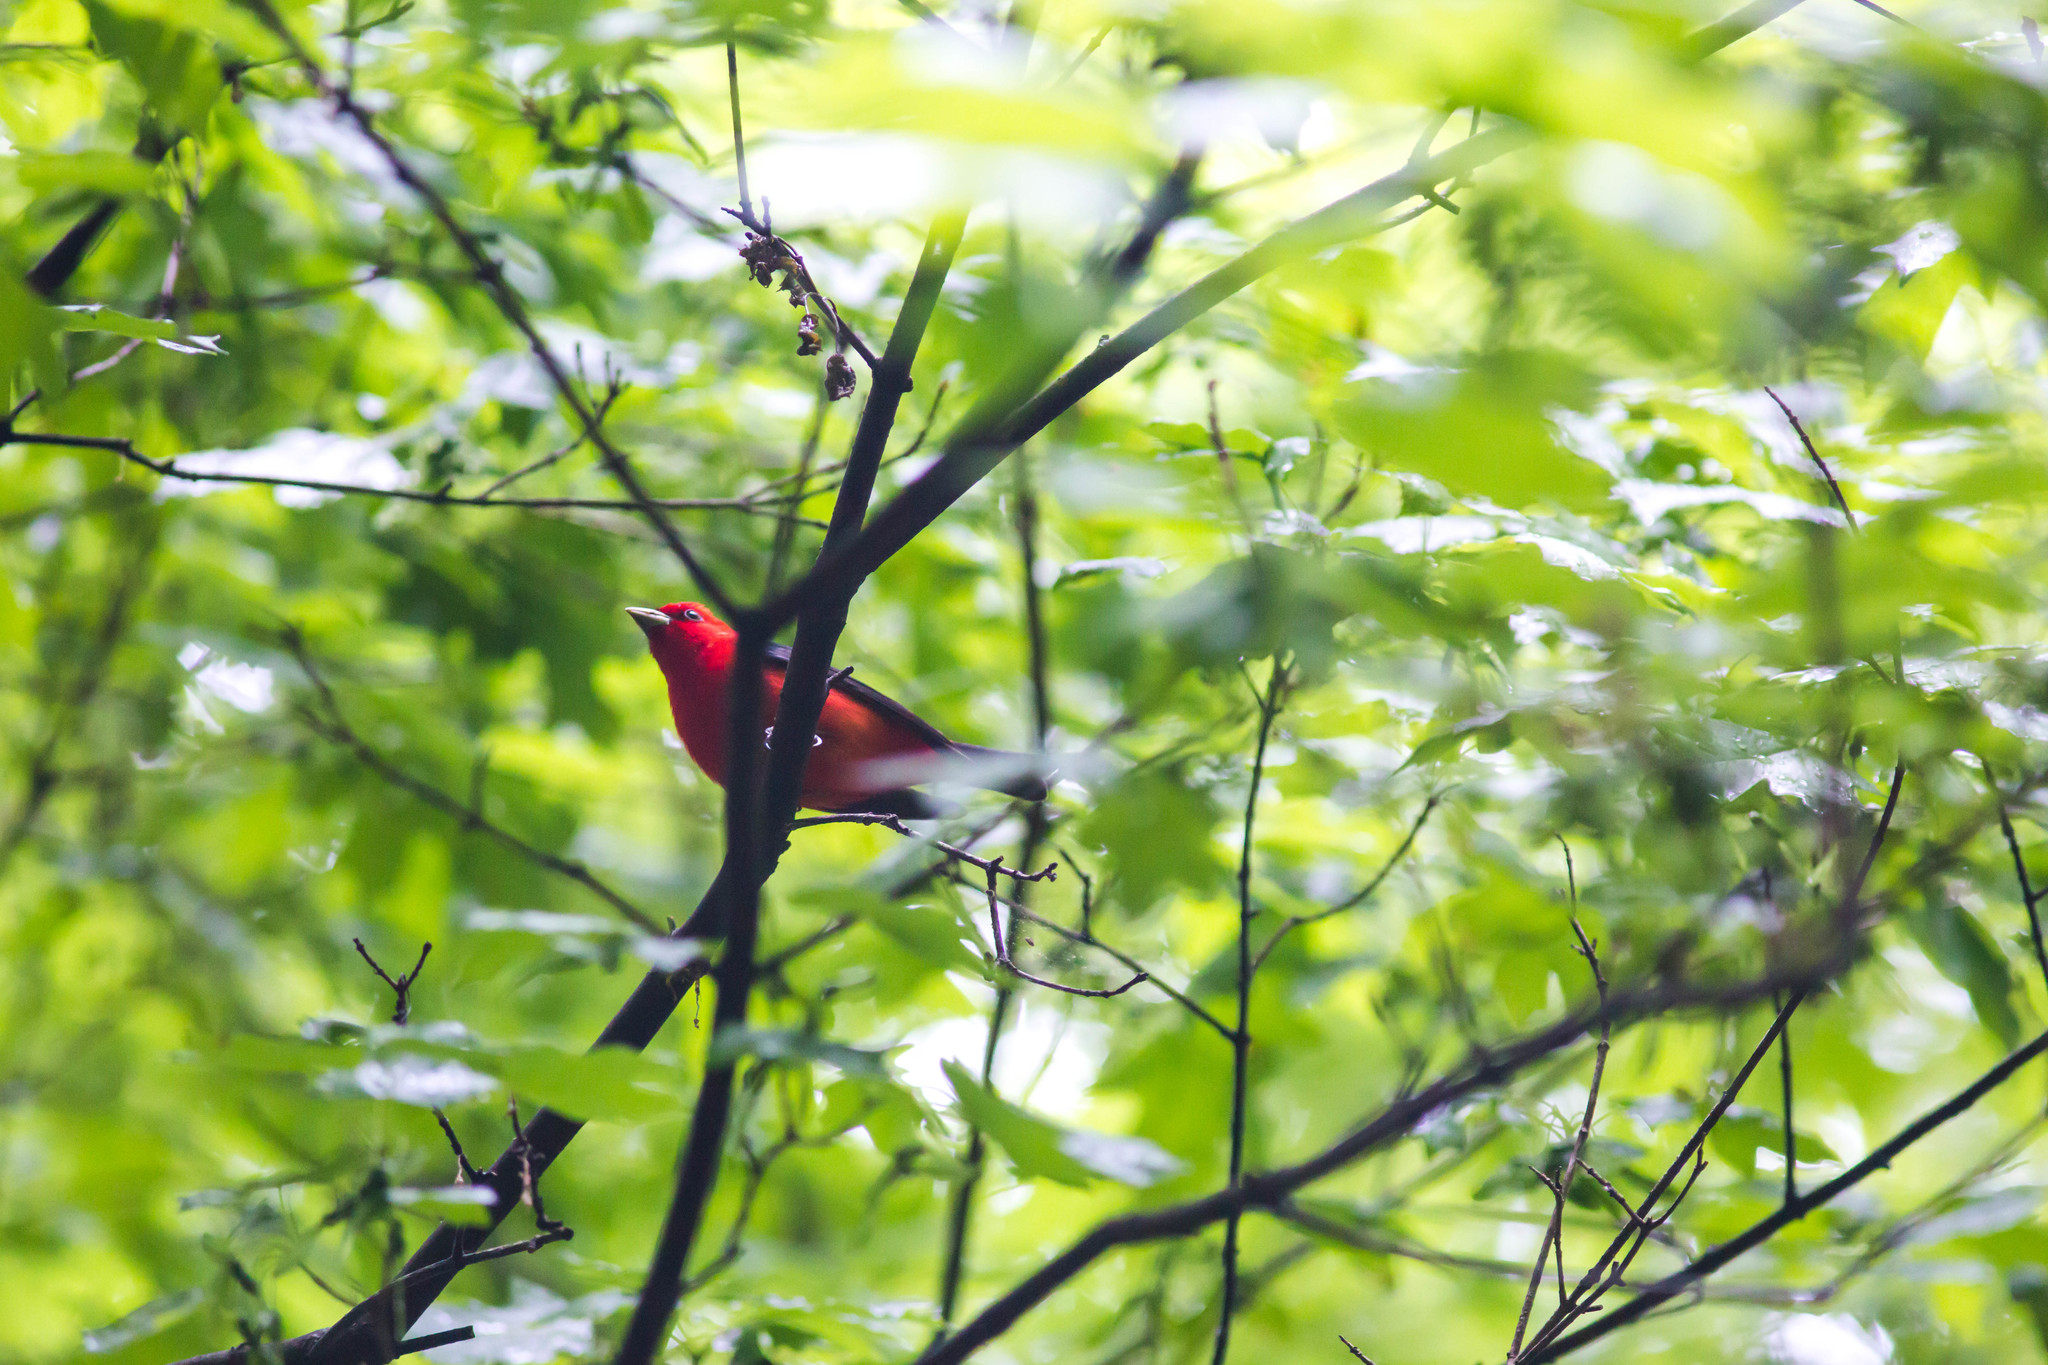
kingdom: Animalia
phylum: Chordata
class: Aves
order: Passeriformes
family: Cardinalidae
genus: Piranga
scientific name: Piranga olivacea
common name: Scarlet tanager
